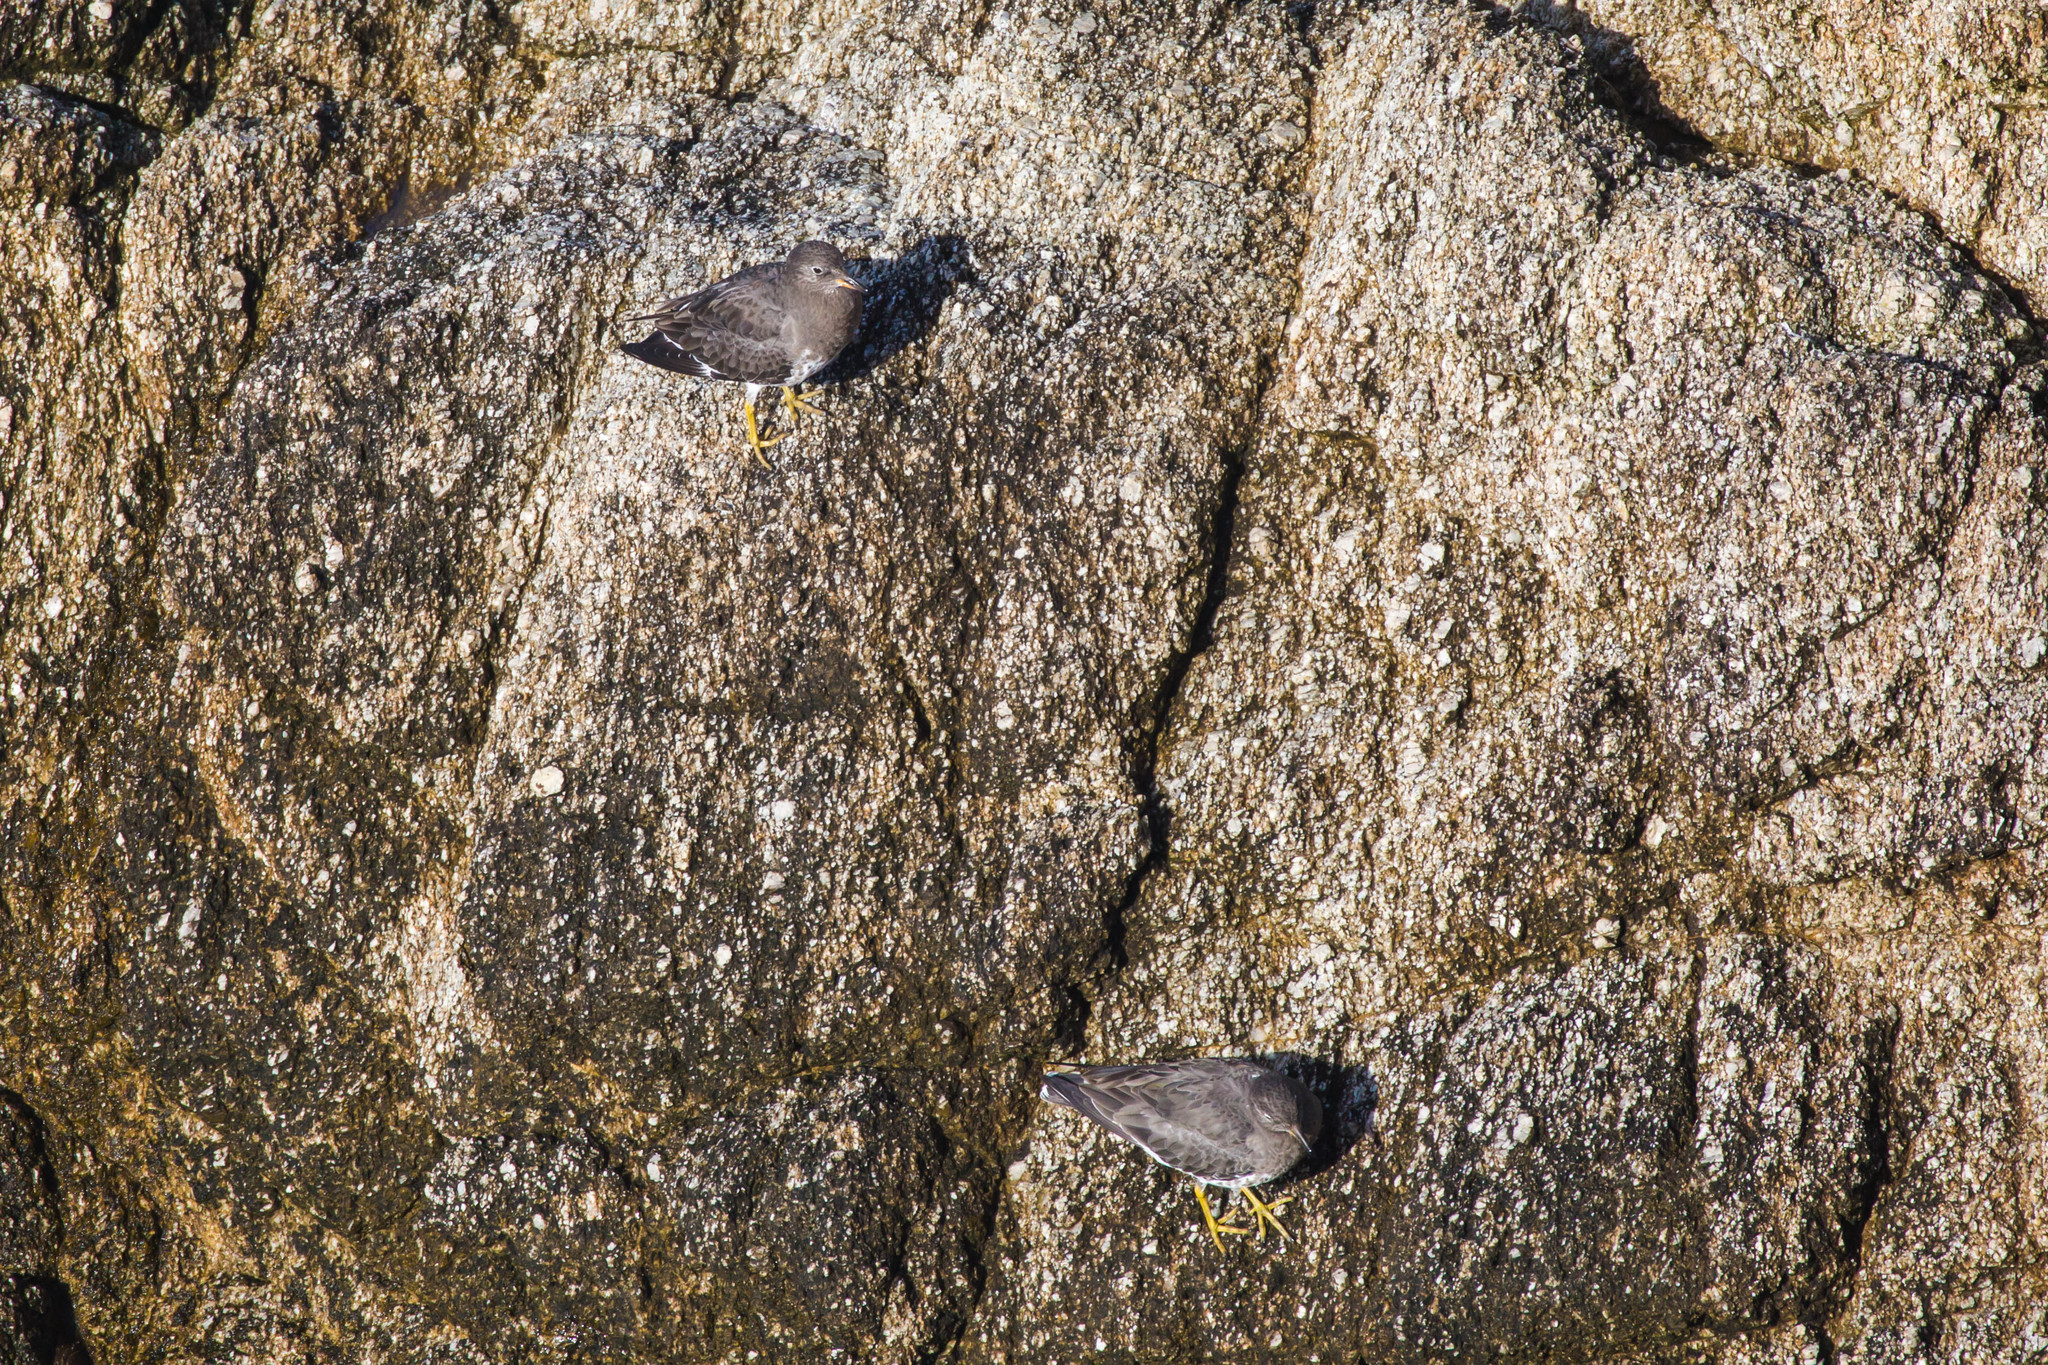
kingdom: Animalia
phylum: Chordata
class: Aves
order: Charadriiformes
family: Scolopacidae
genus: Calidris
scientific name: Calidris virgata
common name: Surfbird
